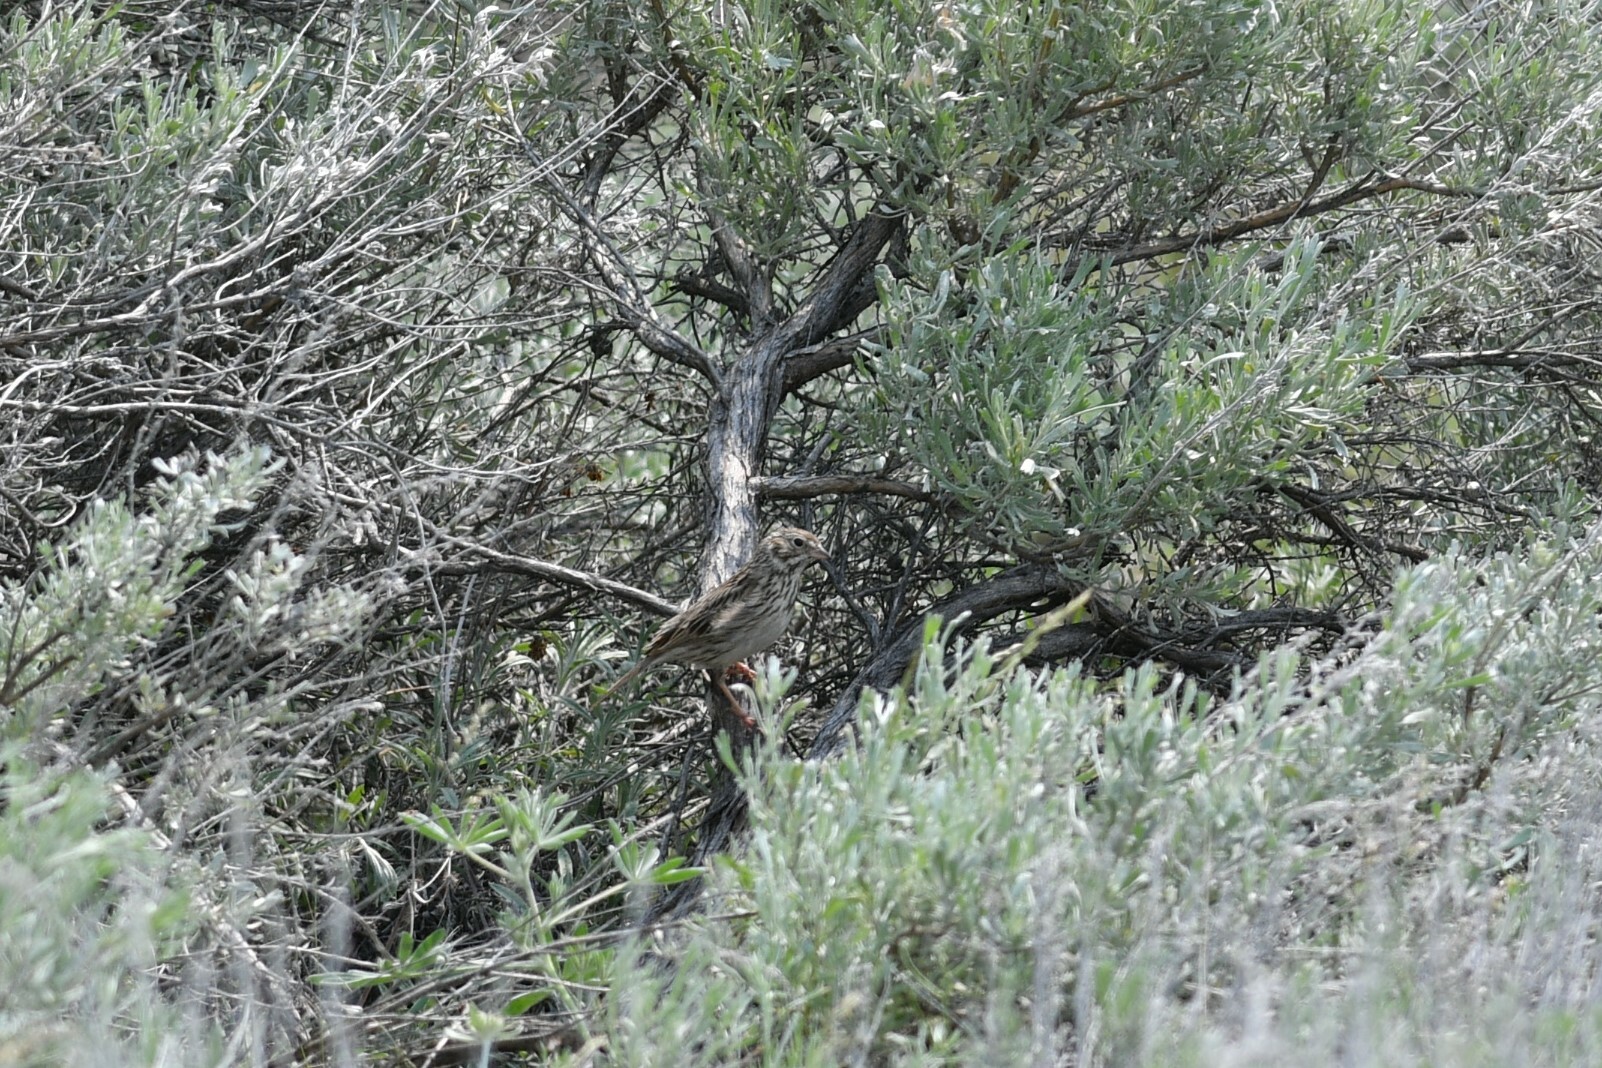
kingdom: Animalia
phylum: Chordata
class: Aves
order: Passeriformes
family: Passerellidae
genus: Pooecetes
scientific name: Pooecetes gramineus
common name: Vesper sparrow
